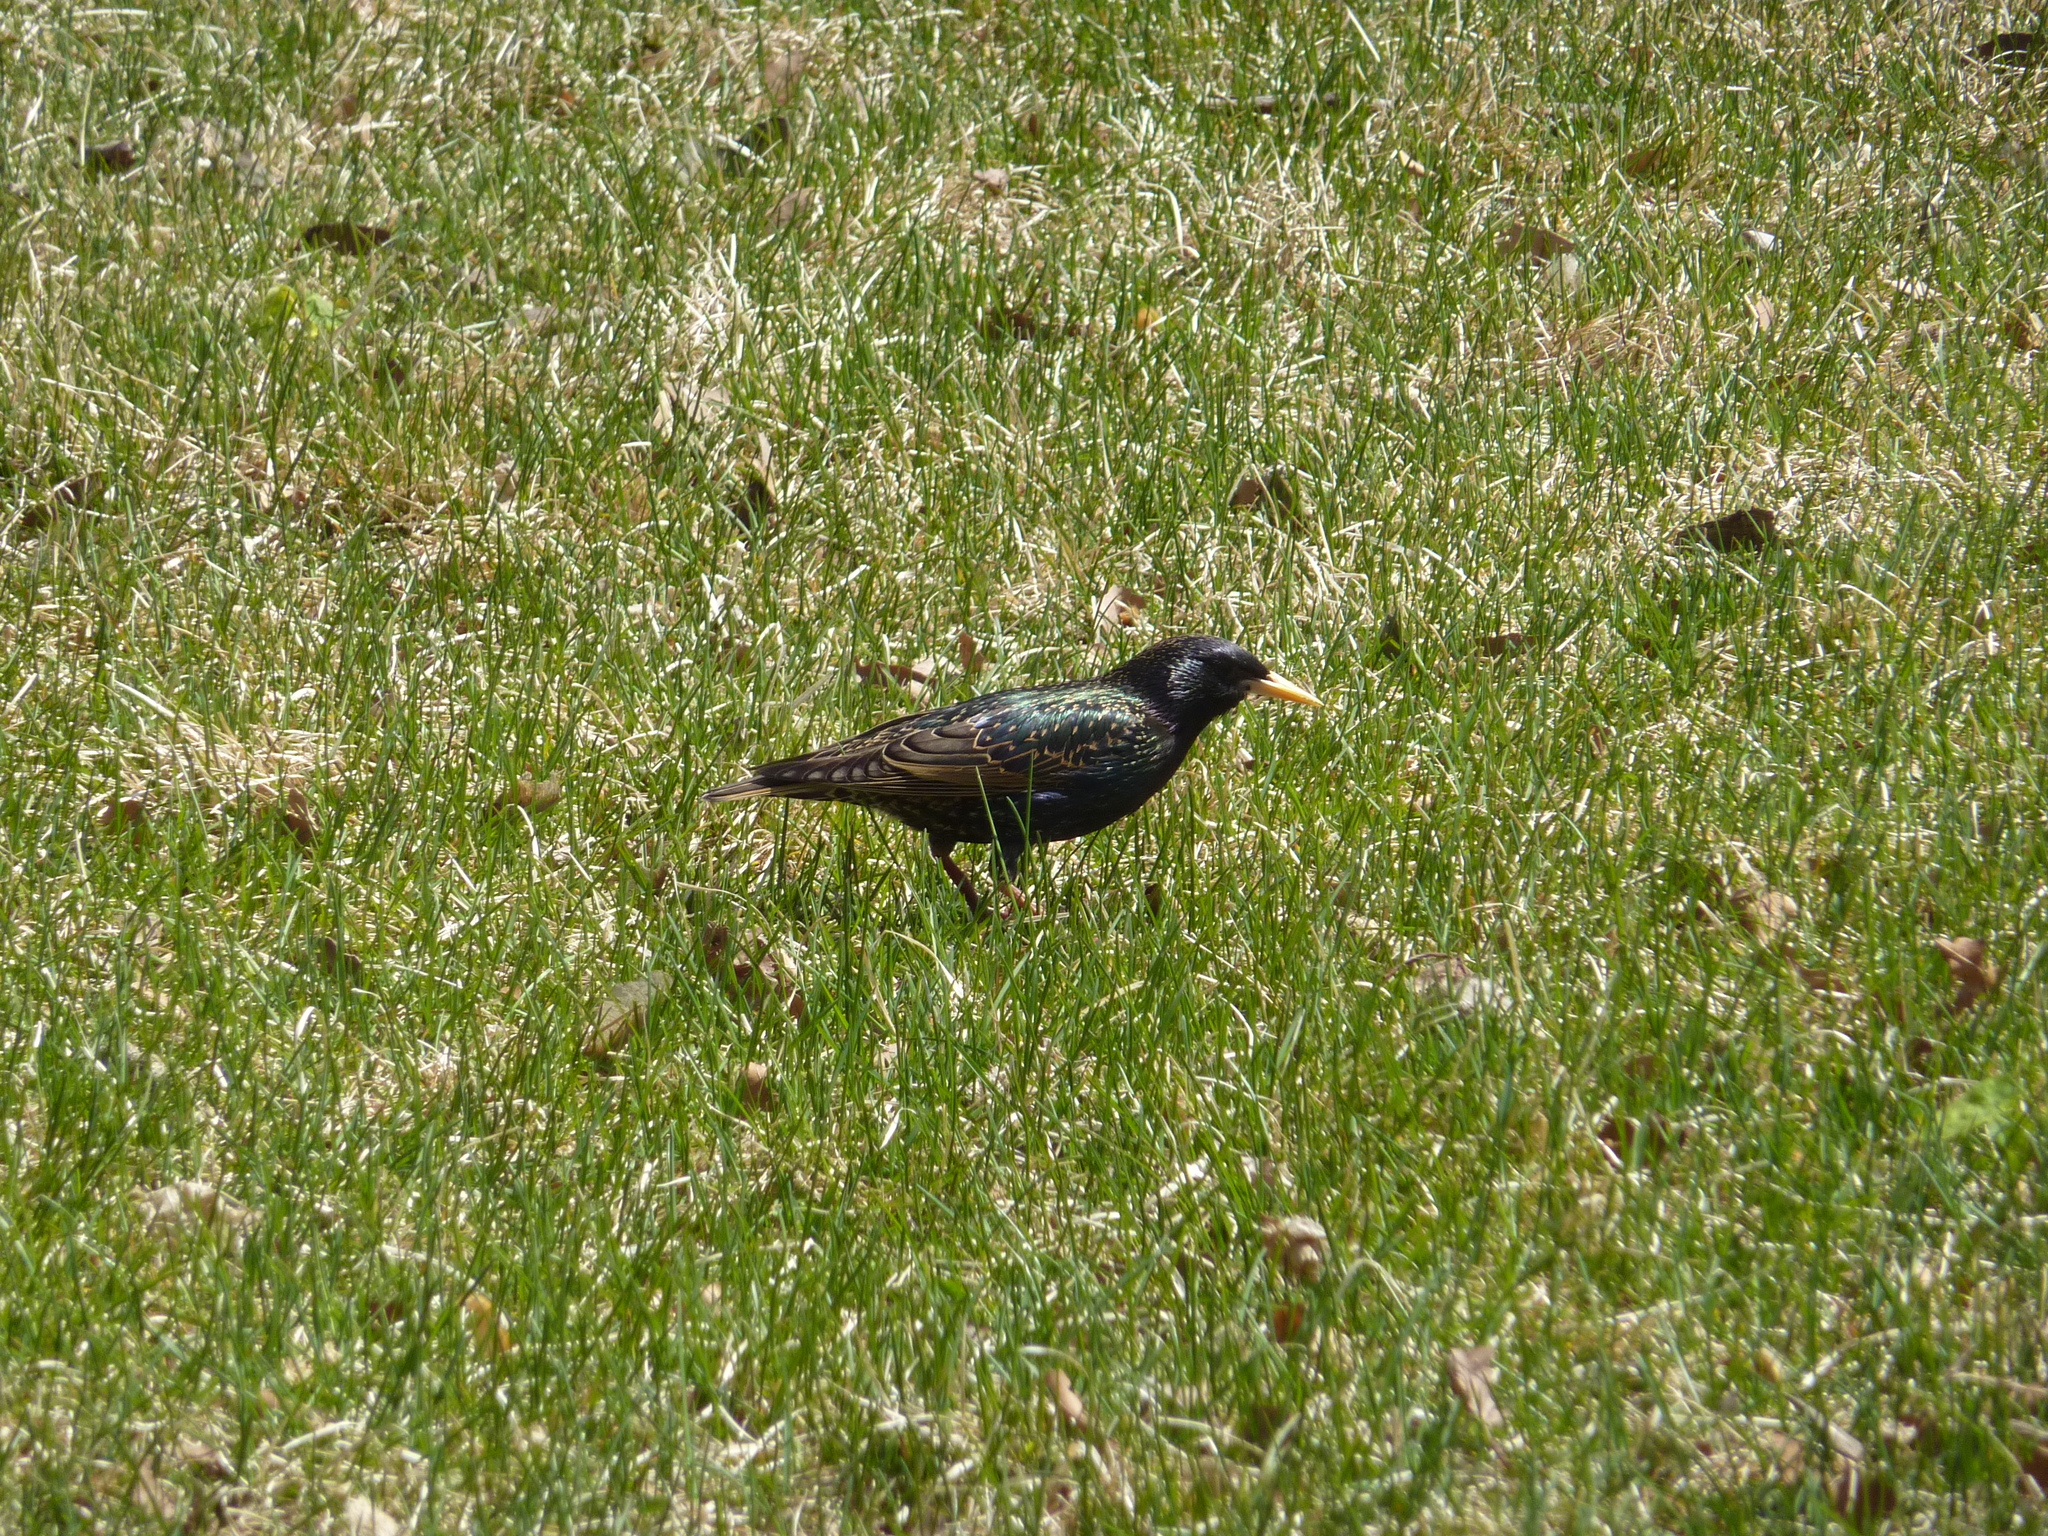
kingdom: Animalia
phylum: Chordata
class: Aves
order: Passeriformes
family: Sturnidae
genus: Sturnus
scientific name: Sturnus vulgaris
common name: Common starling
